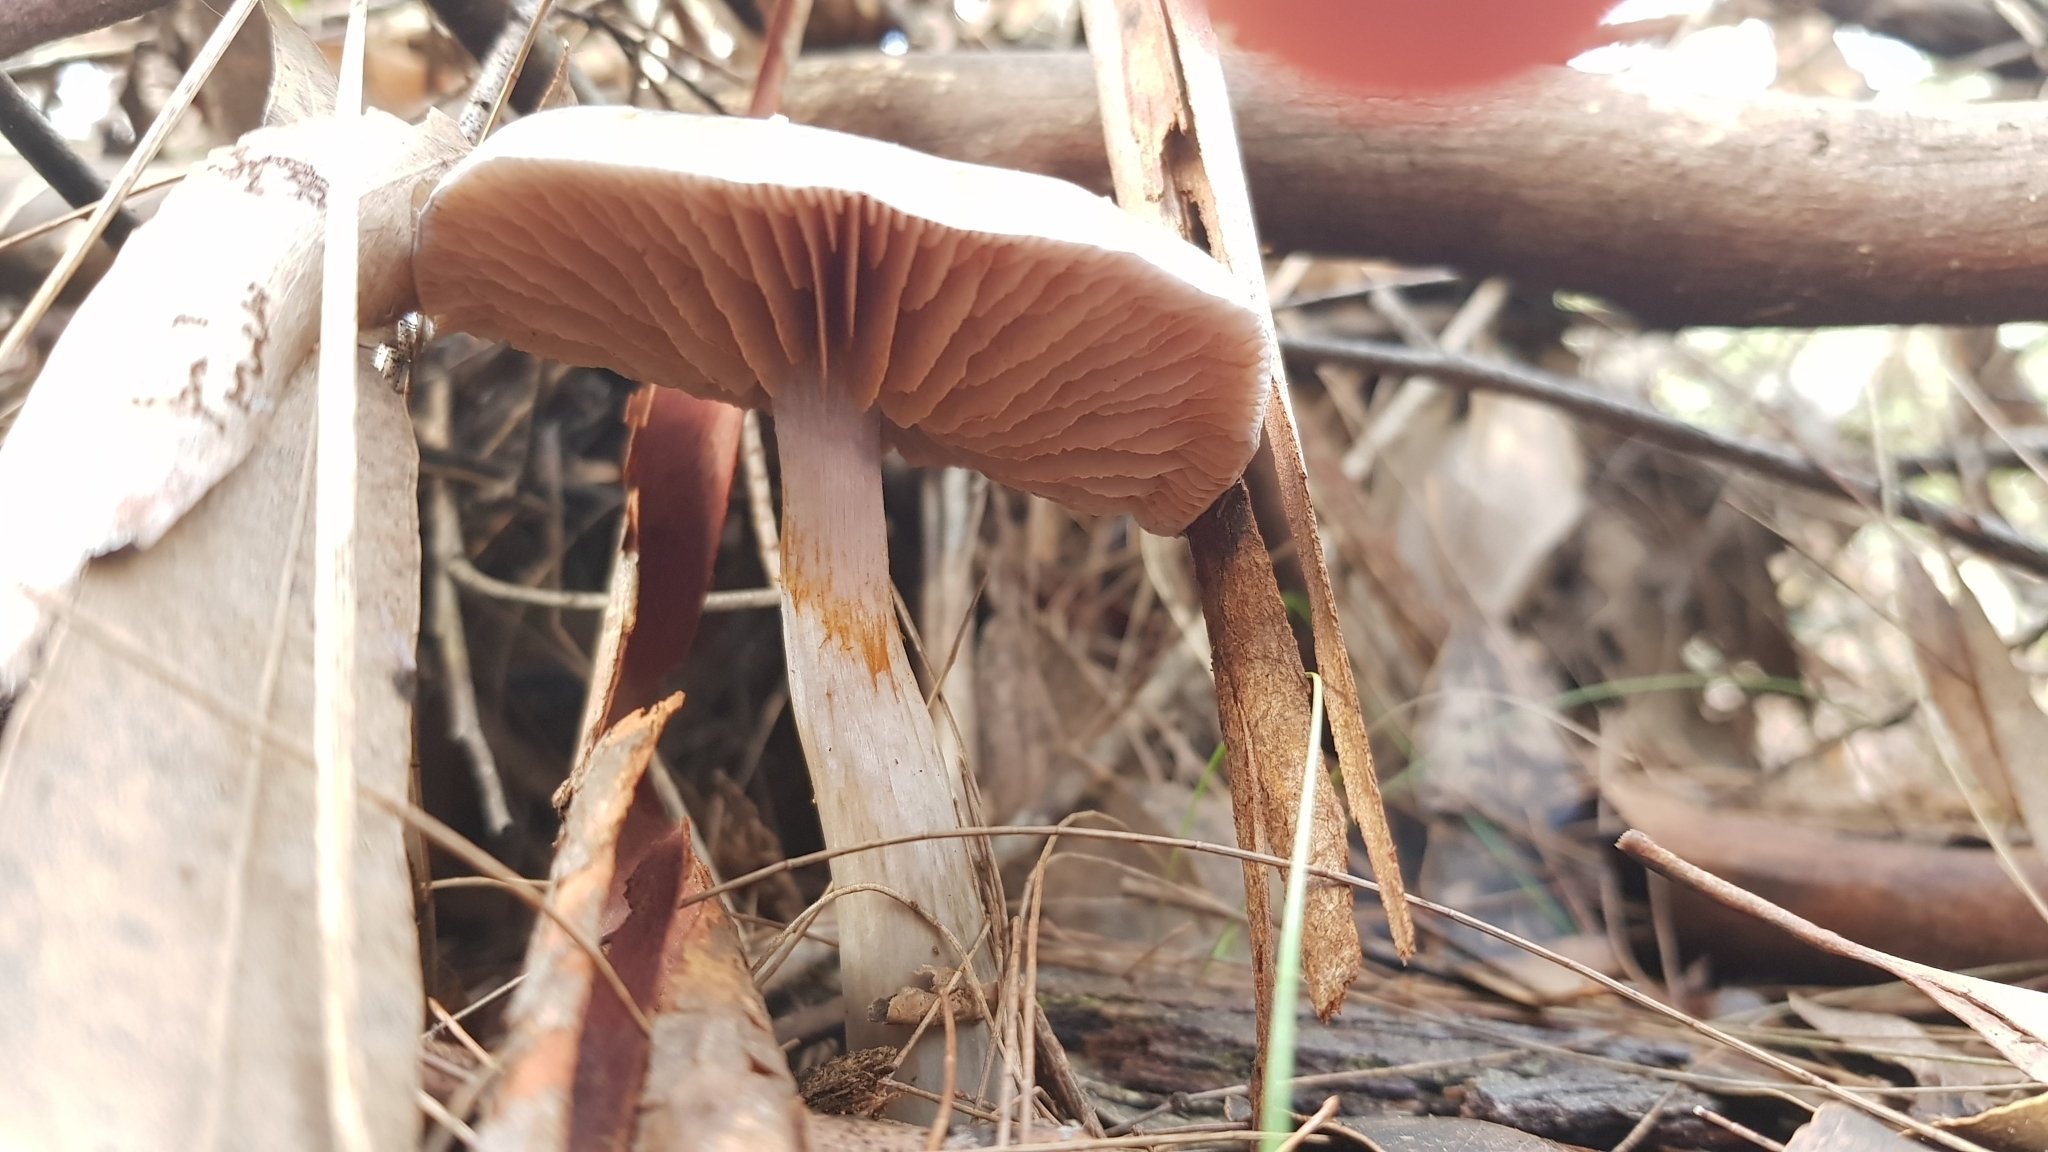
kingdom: Fungi
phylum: Basidiomycota
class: Agaricomycetes
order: Agaricales
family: Cortinariaceae
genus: Cortinarius
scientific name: Cortinarius rotundisporus
